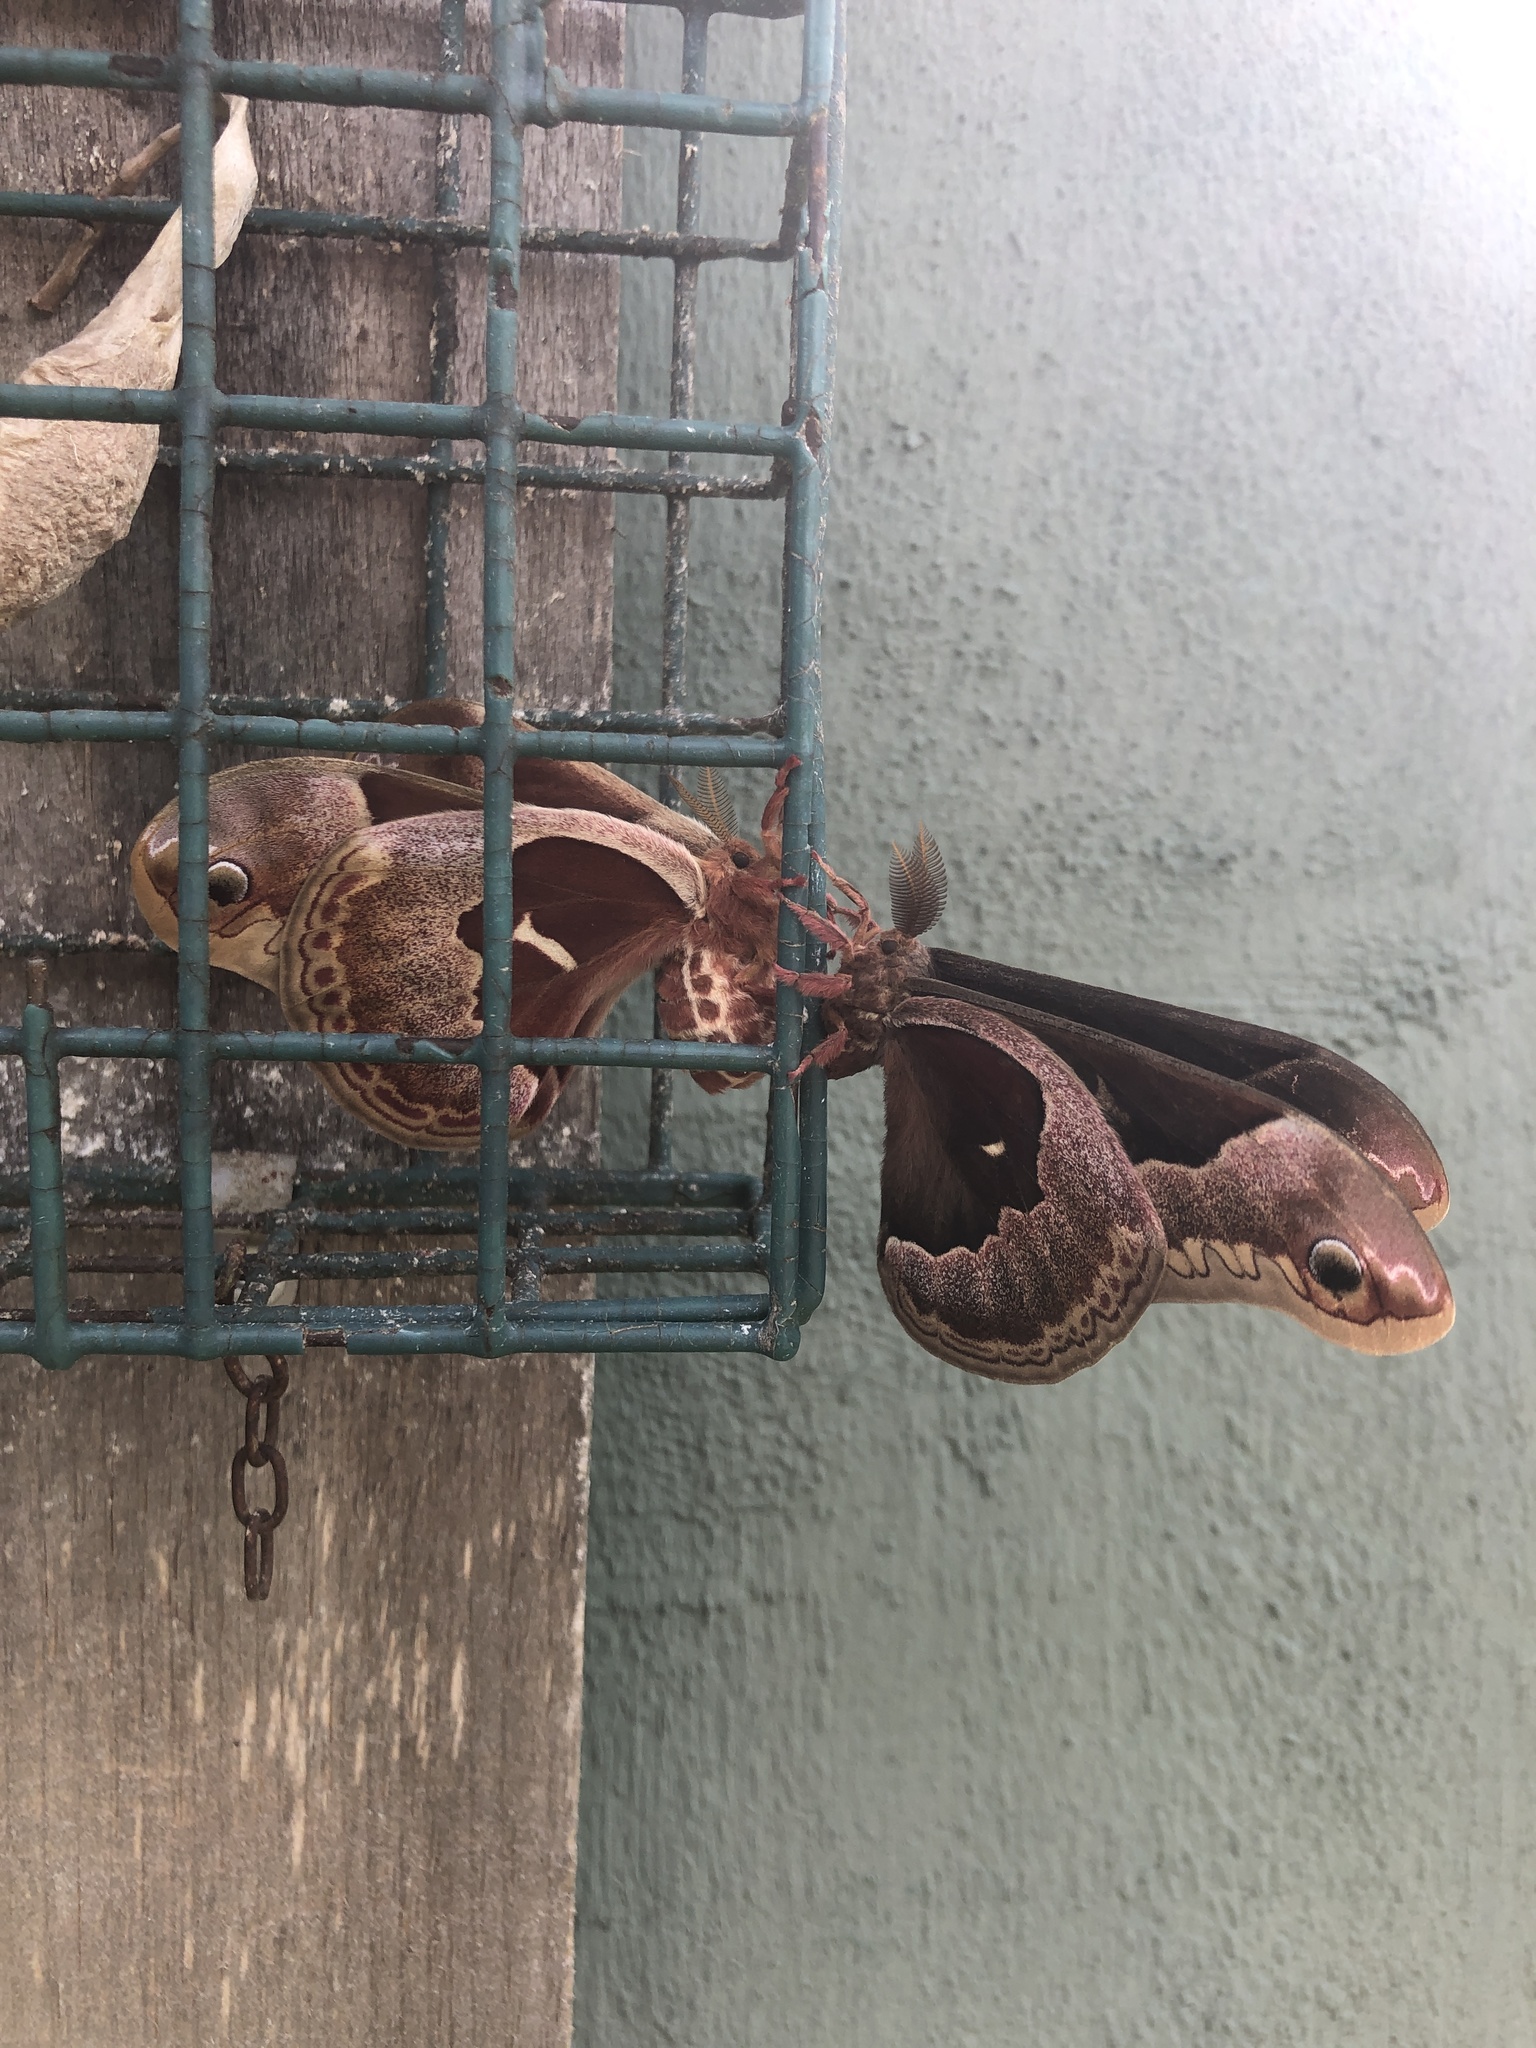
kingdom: Animalia
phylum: Arthropoda
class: Insecta
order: Lepidoptera
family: Saturniidae
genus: Callosamia
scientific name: Callosamia promethea
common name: Promethea silkmoth
